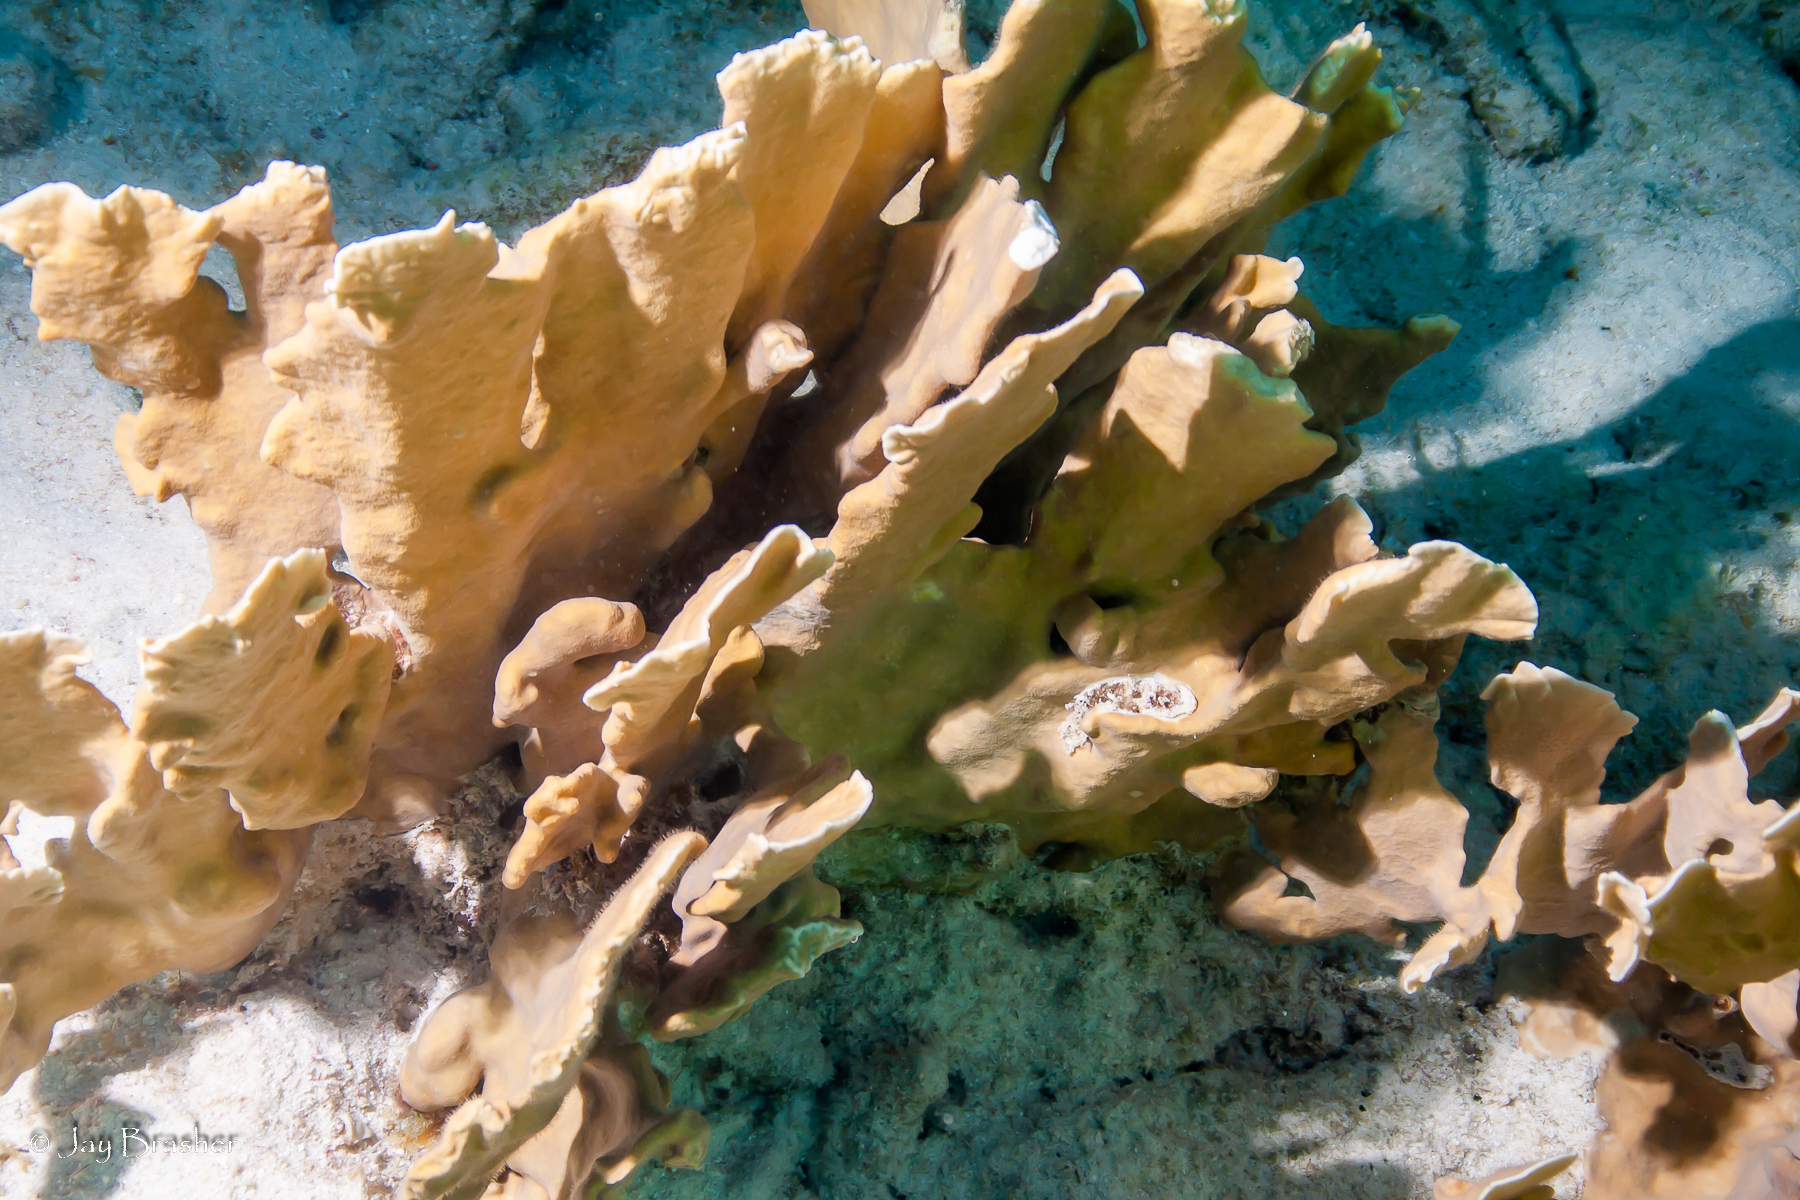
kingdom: Animalia
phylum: Cnidaria
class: Hydrozoa
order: Anthoathecata
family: Milleporidae
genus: Millepora
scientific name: Millepora complanata
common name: Bladed fire coral
